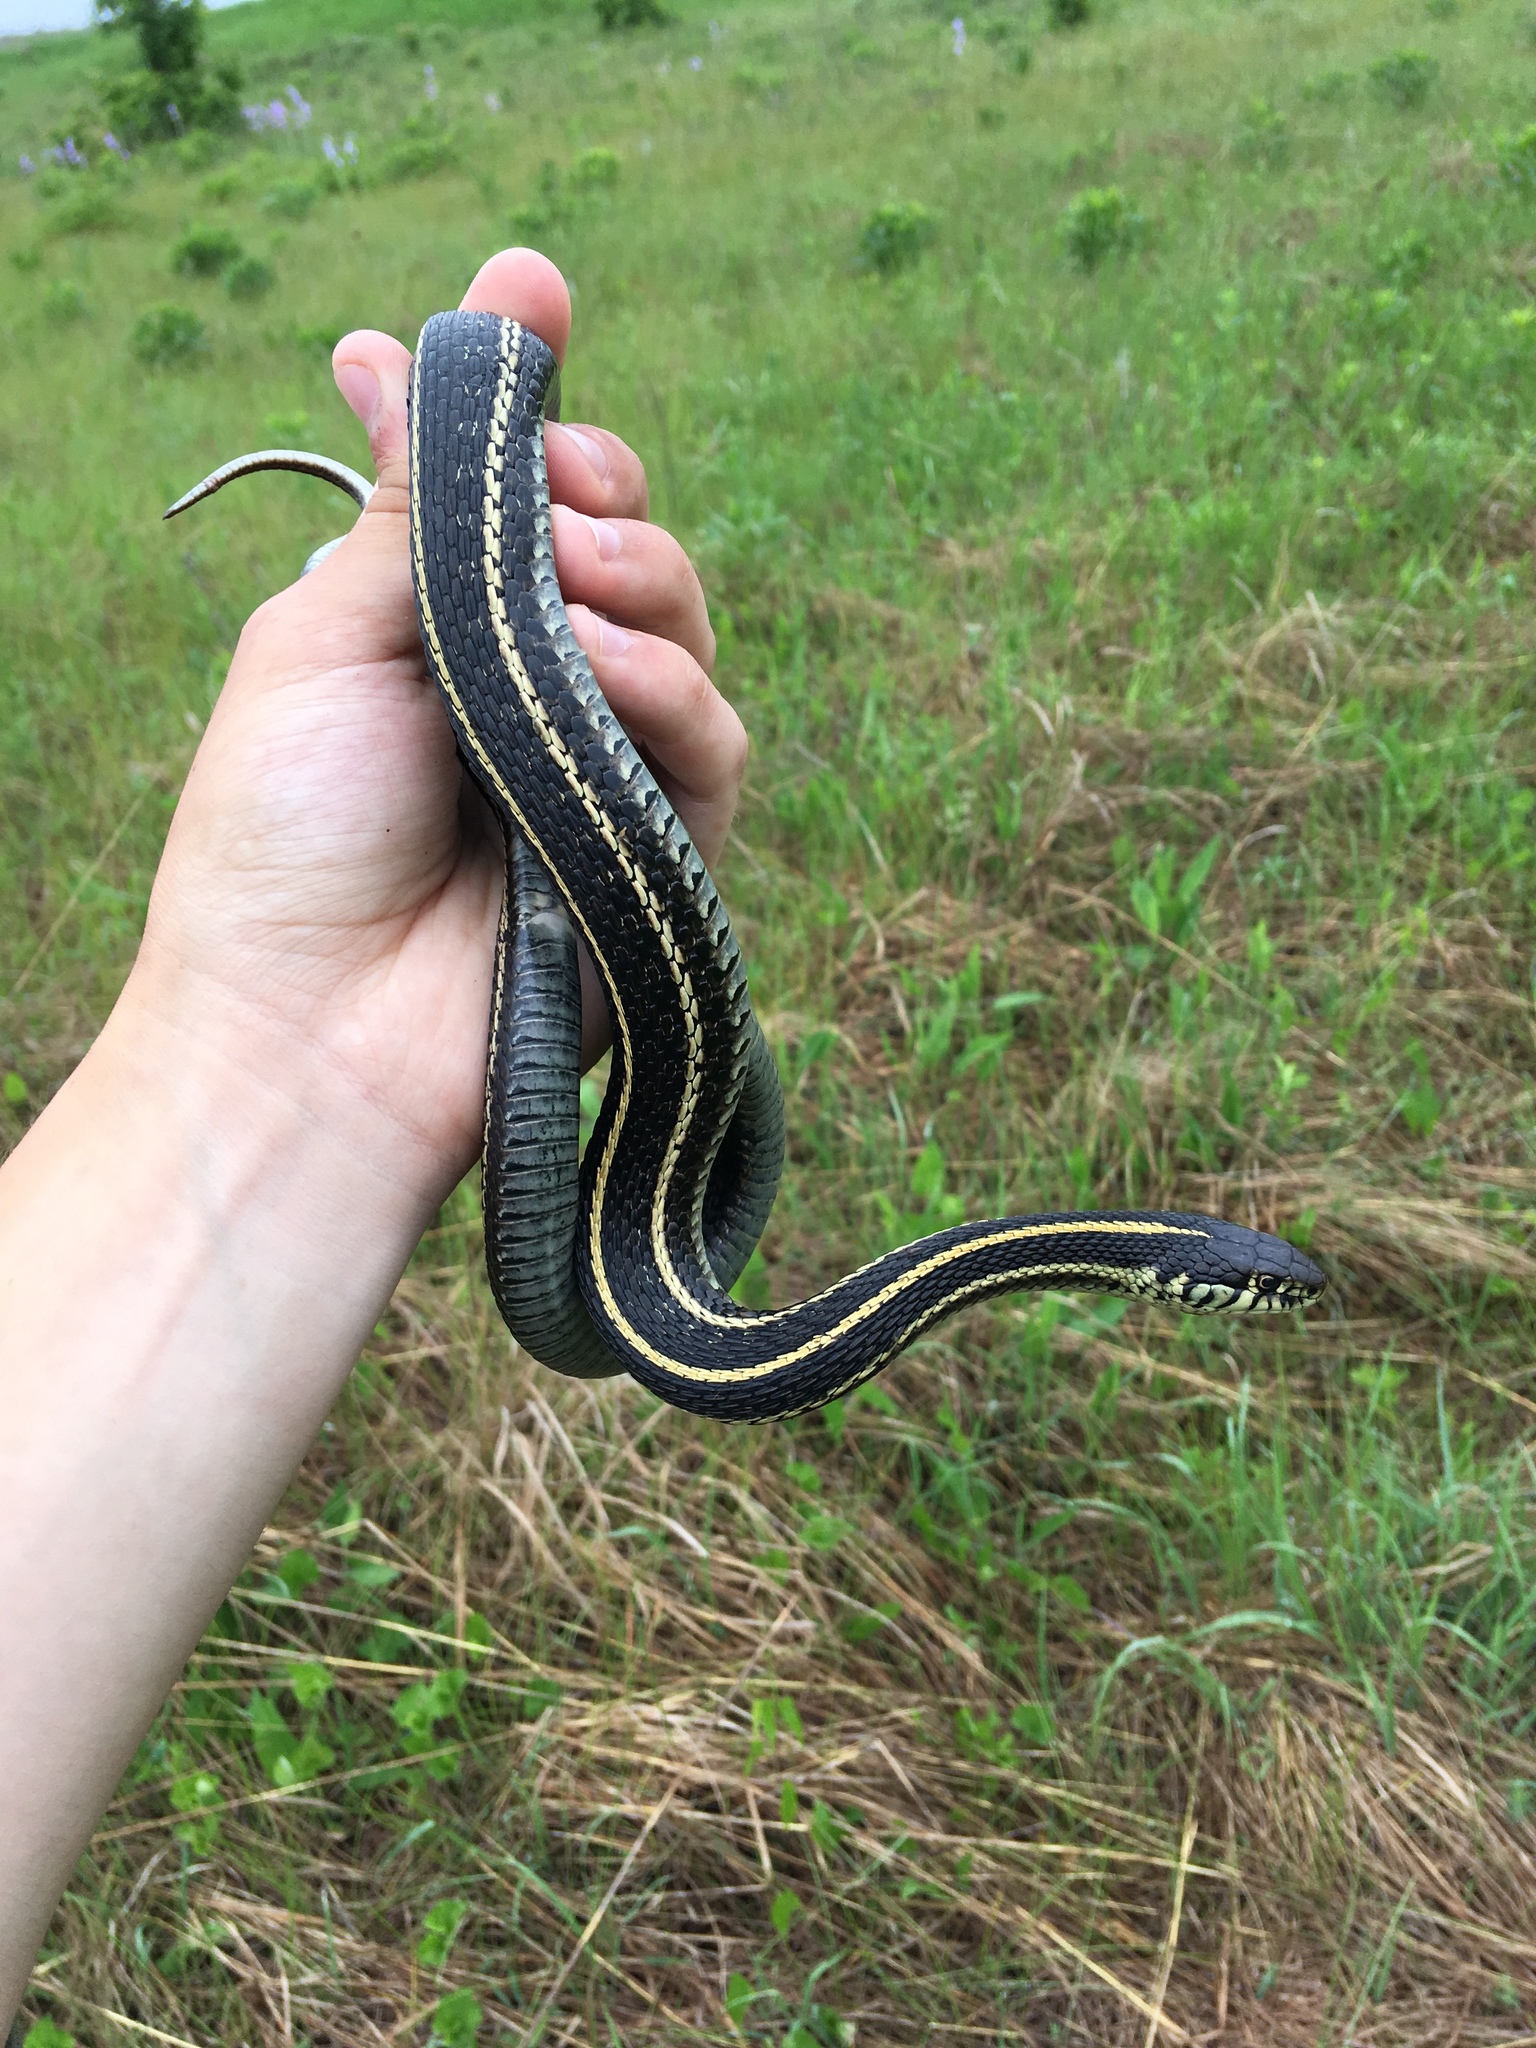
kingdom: Animalia
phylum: Chordata
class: Squamata
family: Colubridae
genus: Thamnophis
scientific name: Thamnophis radix
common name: Plains garter snake
